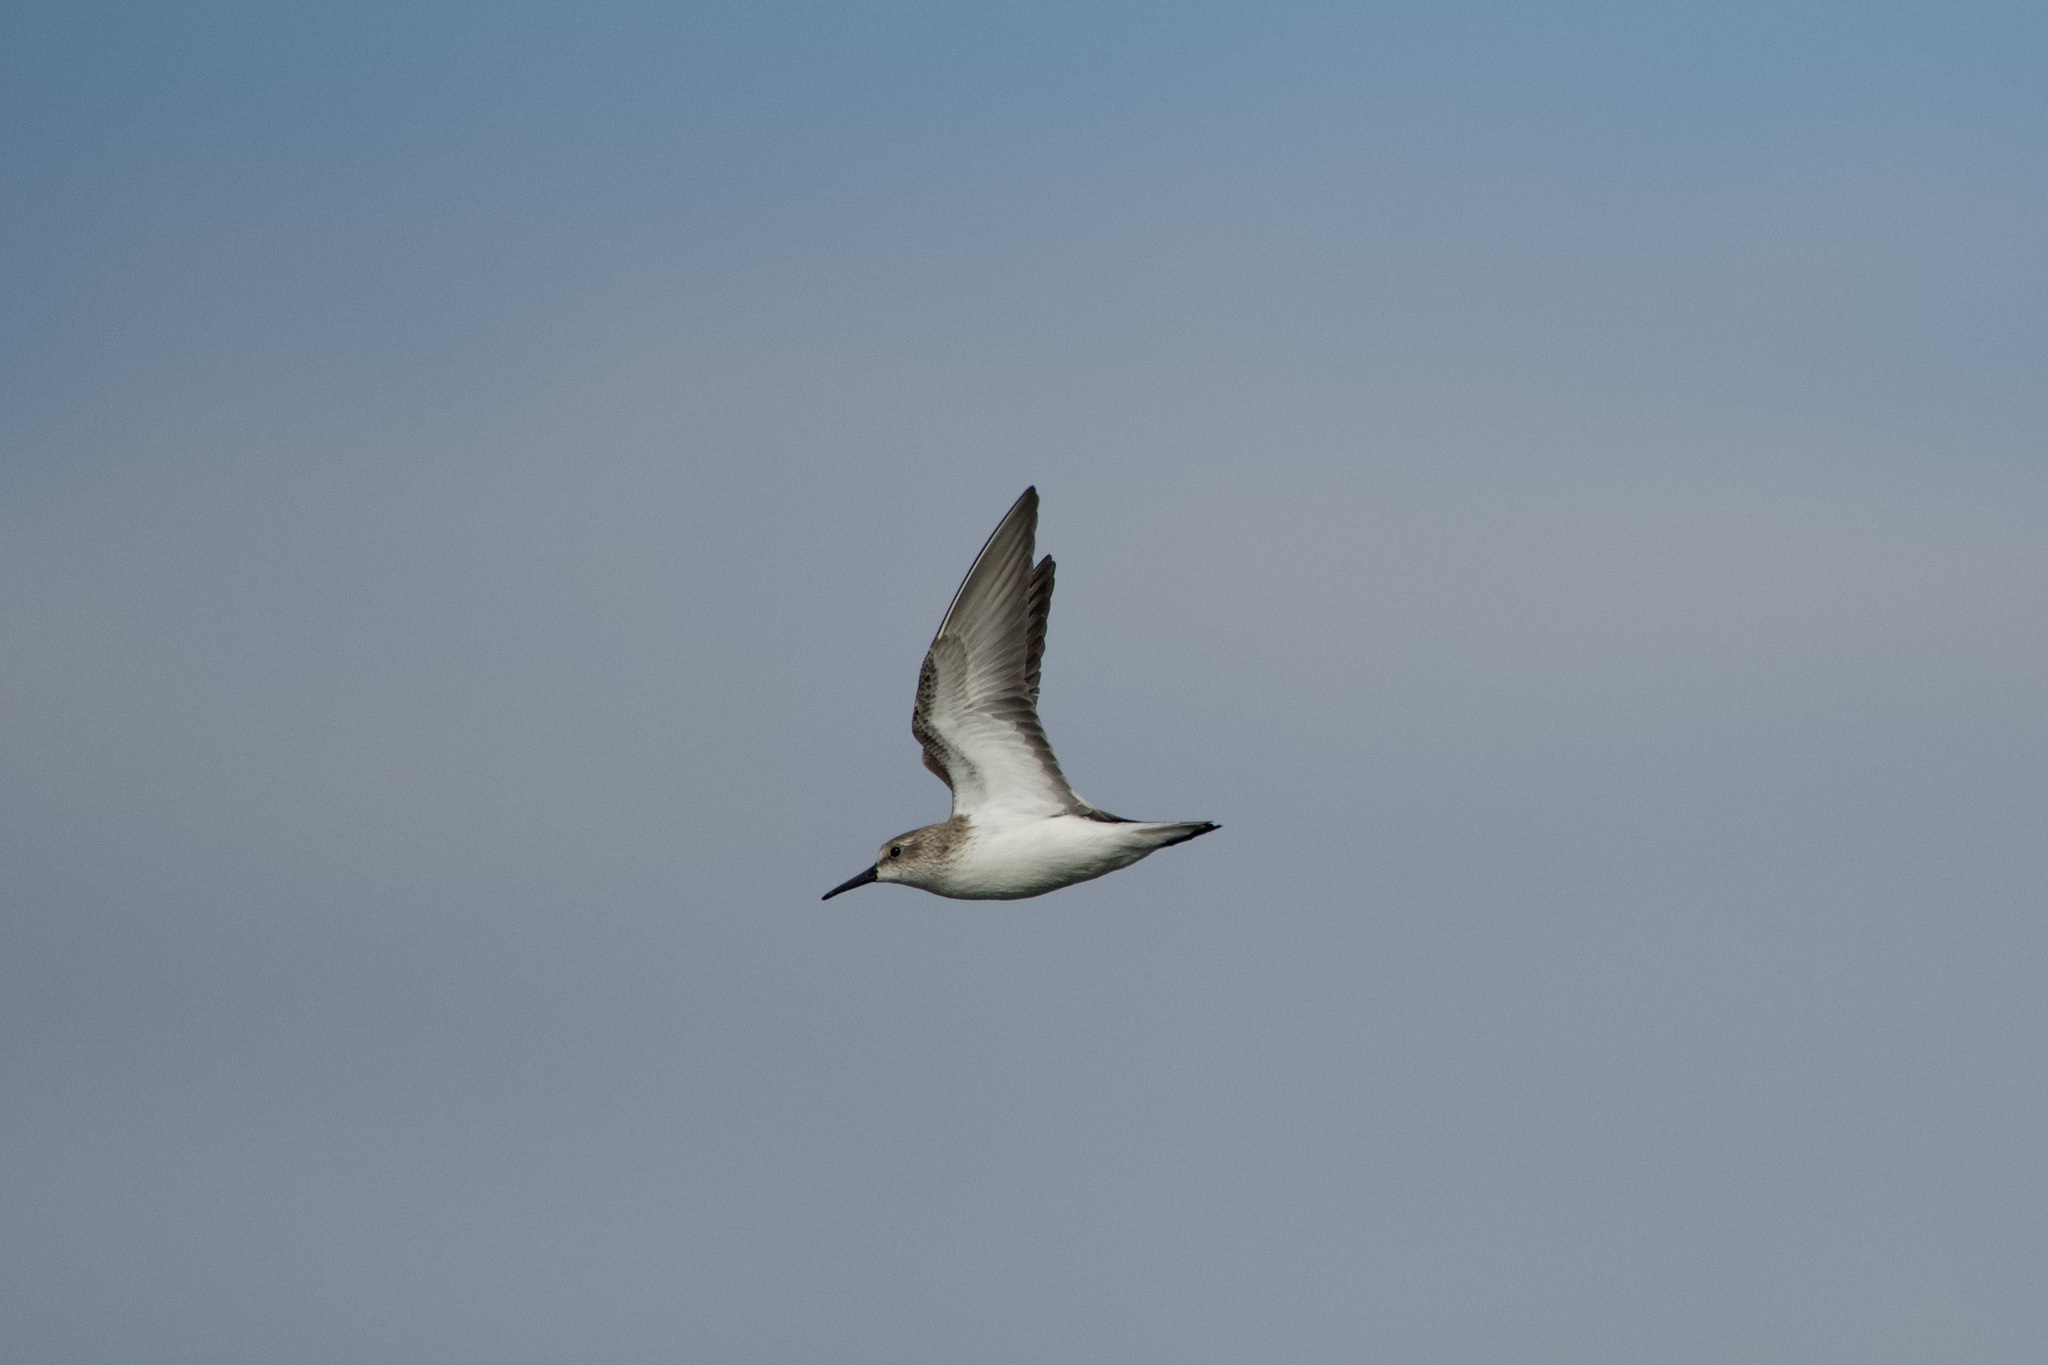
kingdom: Animalia
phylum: Chordata
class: Aves
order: Charadriiformes
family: Scolopacidae
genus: Calidris
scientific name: Calidris mauri
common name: Western sandpiper
